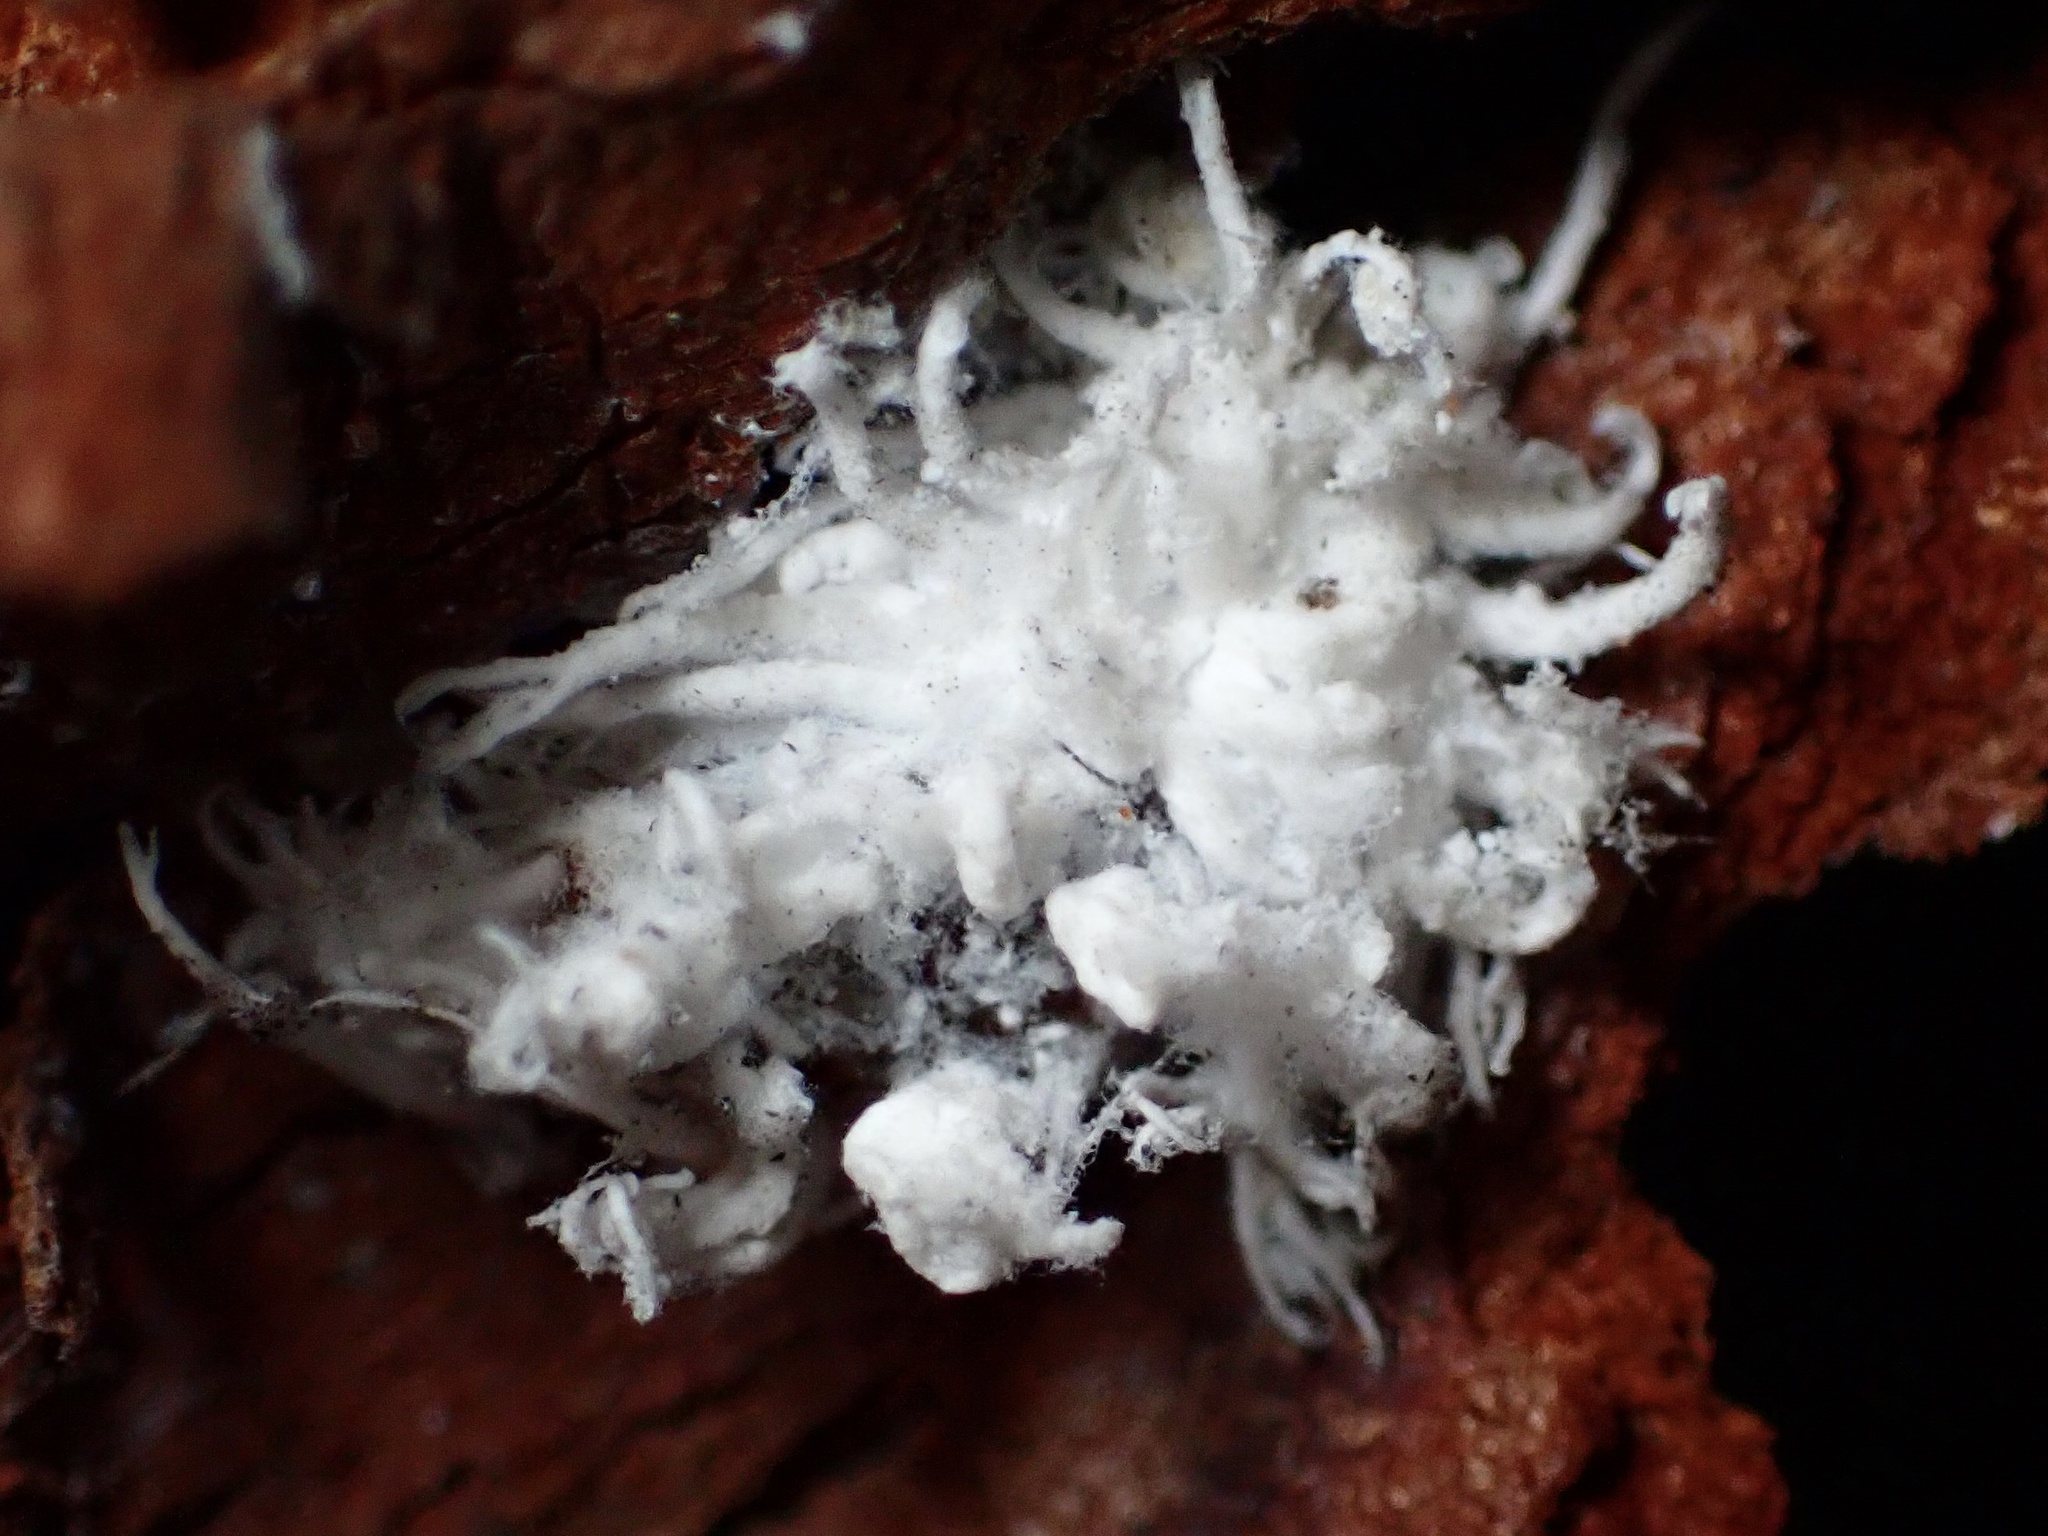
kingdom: Animalia
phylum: Arthropoda
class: Insecta
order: Coleoptera
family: Coccinellidae
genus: Cryptolaemus
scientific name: Cryptolaemus montrouzieri
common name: Mealybug destroyer
